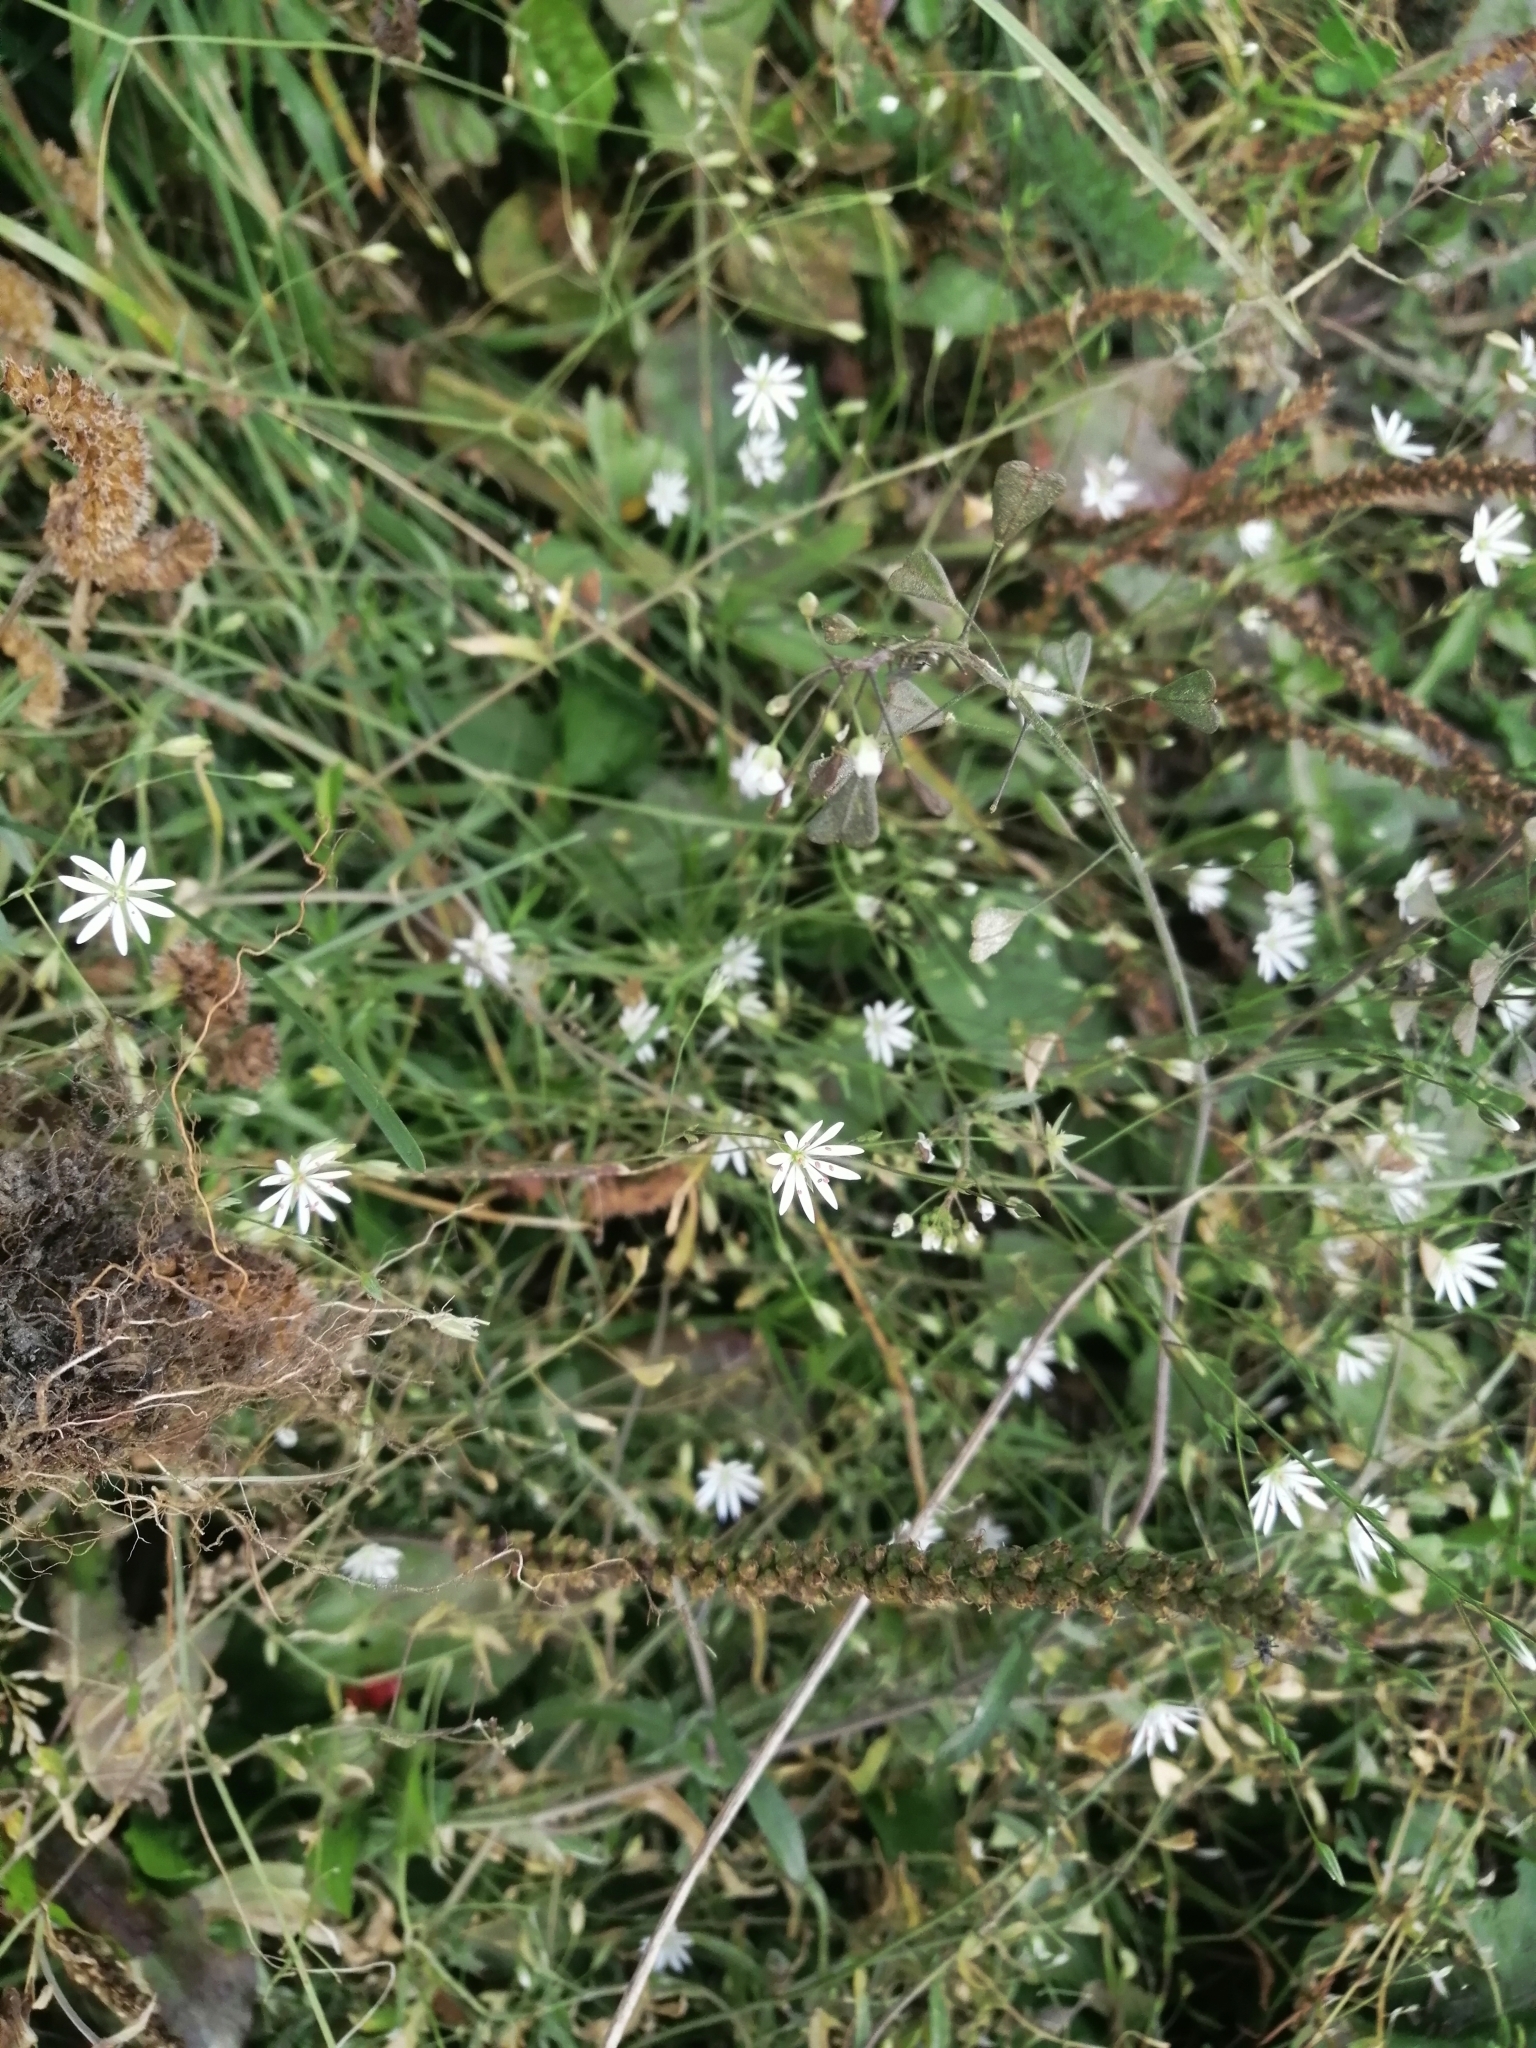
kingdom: Plantae
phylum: Tracheophyta
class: Magnoliopsida
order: Caryophyllales
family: Caryophyllaceae
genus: Stellaria
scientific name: Stellaria graminea
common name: Grass-like starwort
